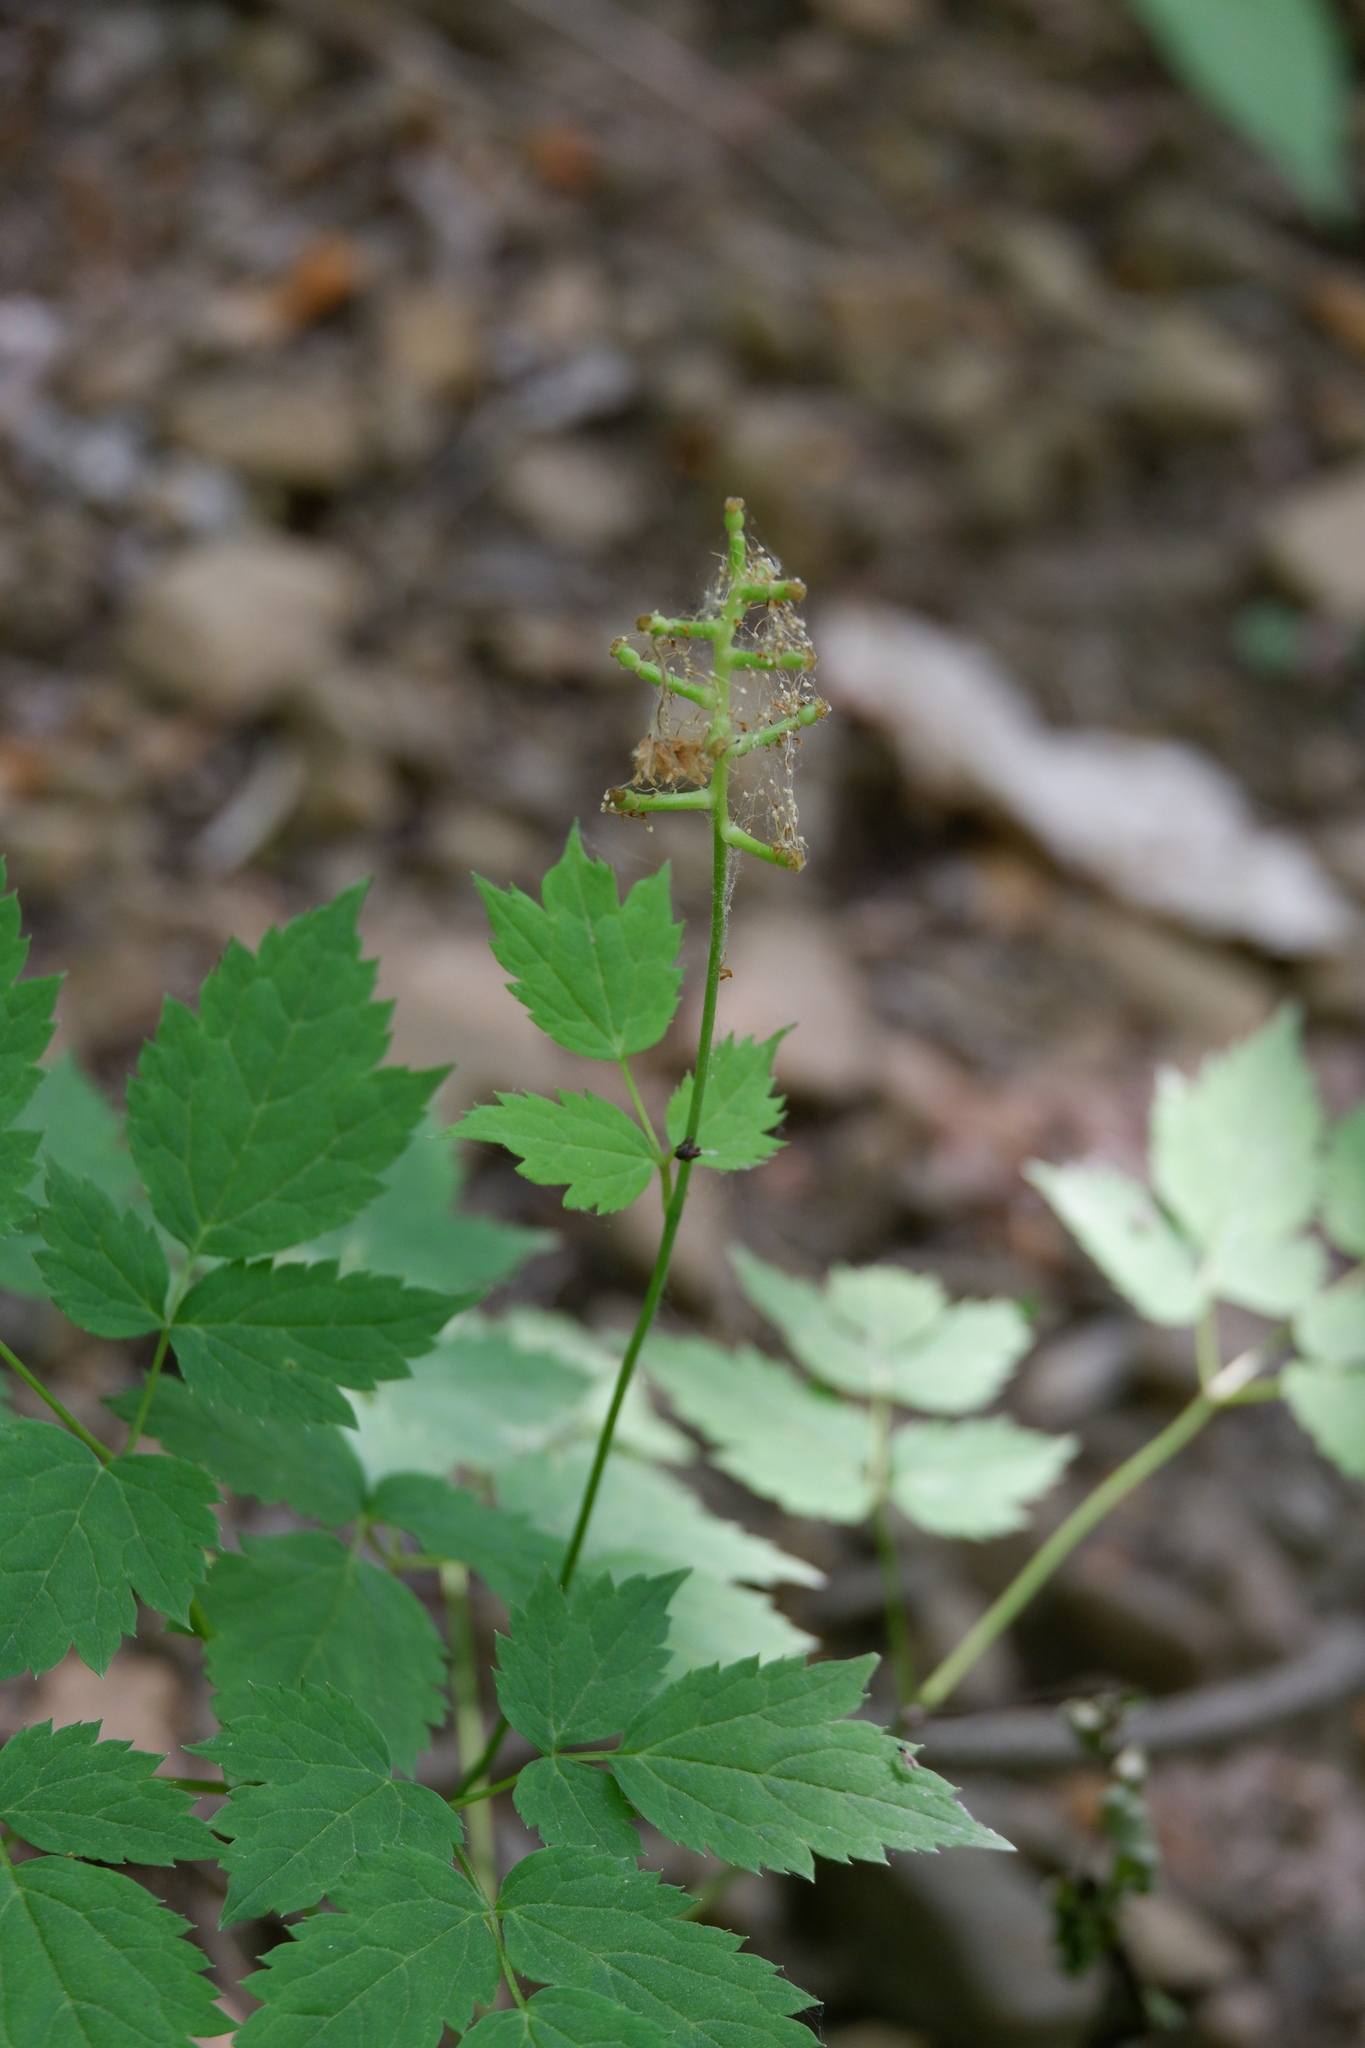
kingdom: Plantae
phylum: Tracheophyta
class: Magnoliopsida
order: Ranunculales
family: Ranunculaceae
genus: Actaea
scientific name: Actaea pachypoda
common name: Doll's-eyes
